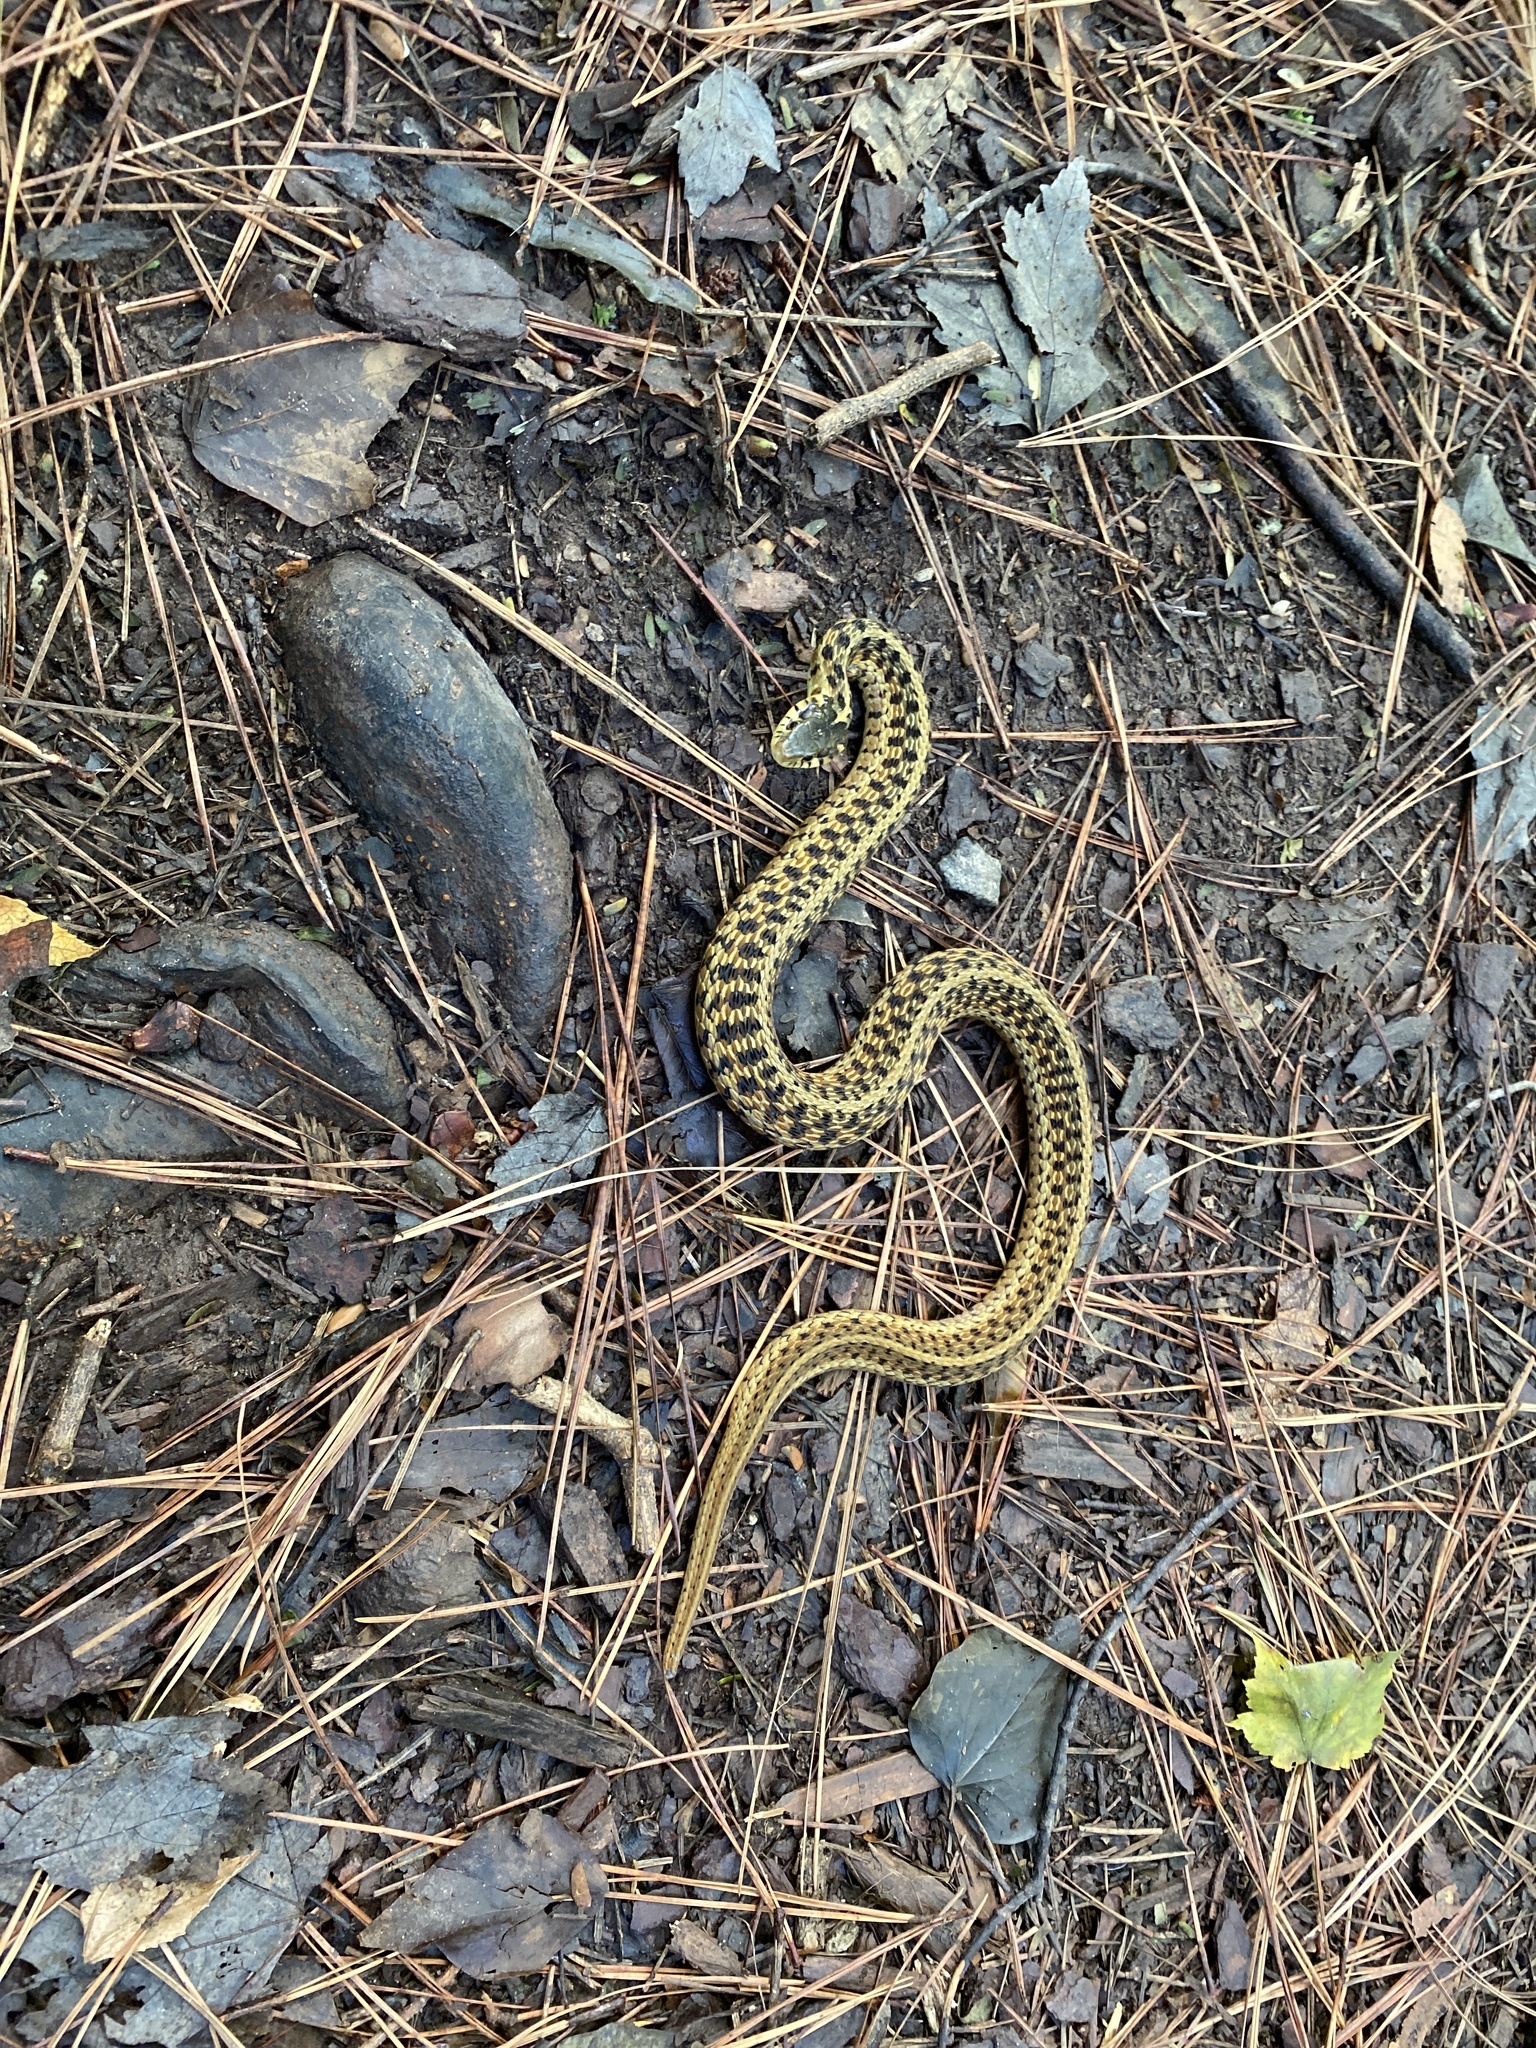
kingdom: Animalia
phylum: Chordata
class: Squamata
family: Colubridae
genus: Thamnophis
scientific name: Thamnophis sirtalis
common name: Common garter snake
